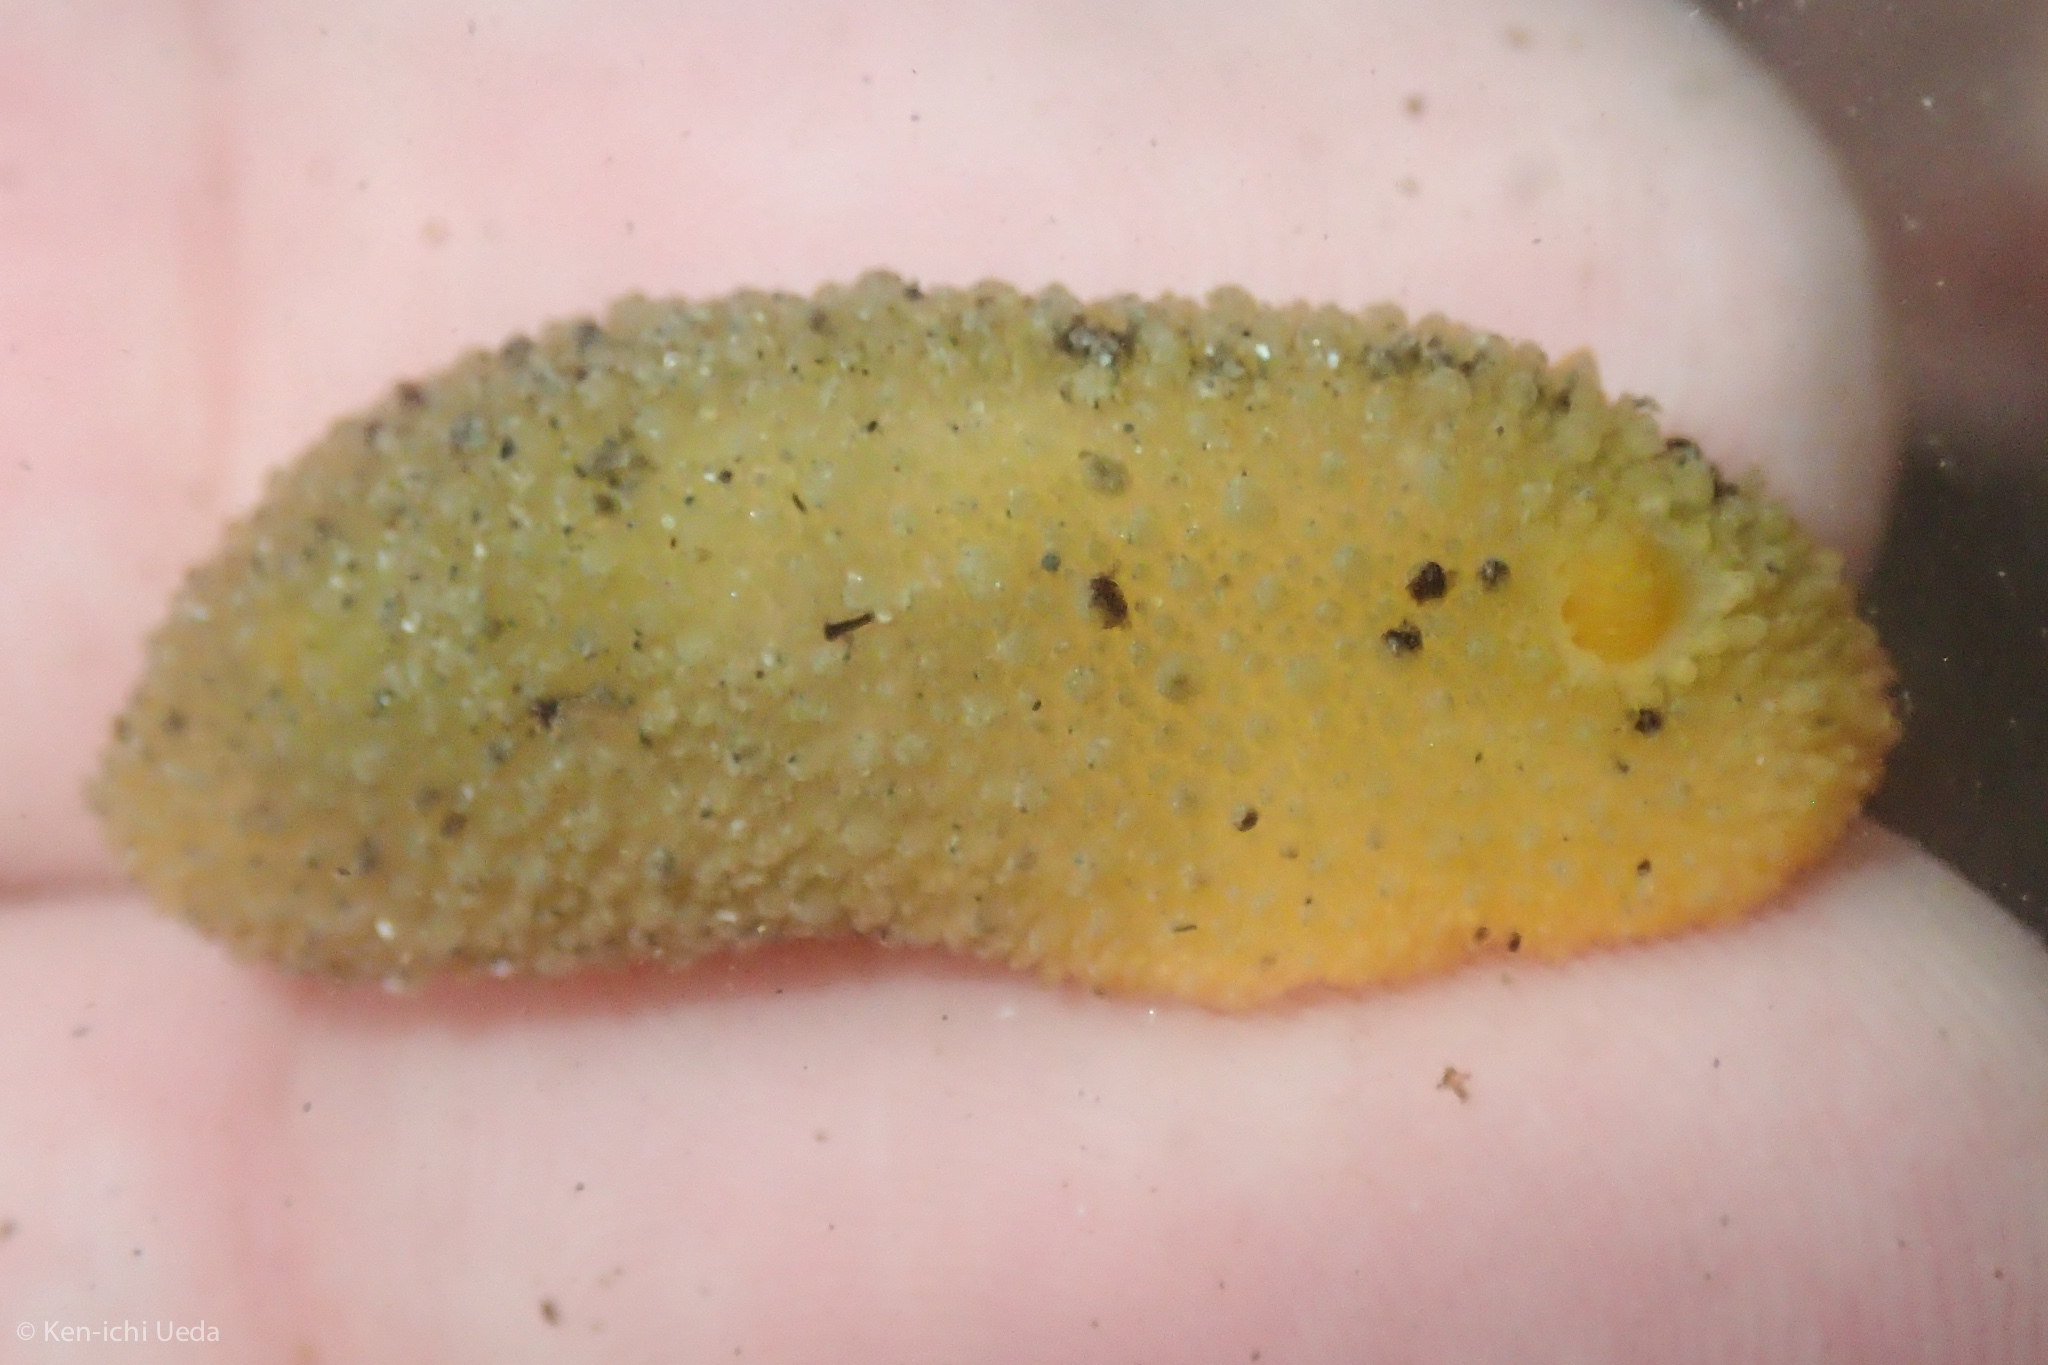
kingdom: Animalia
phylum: Mollusca
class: Gastropoda
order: Nudibranchia
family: Dorididae
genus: Doris
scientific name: Doris montereyensis
